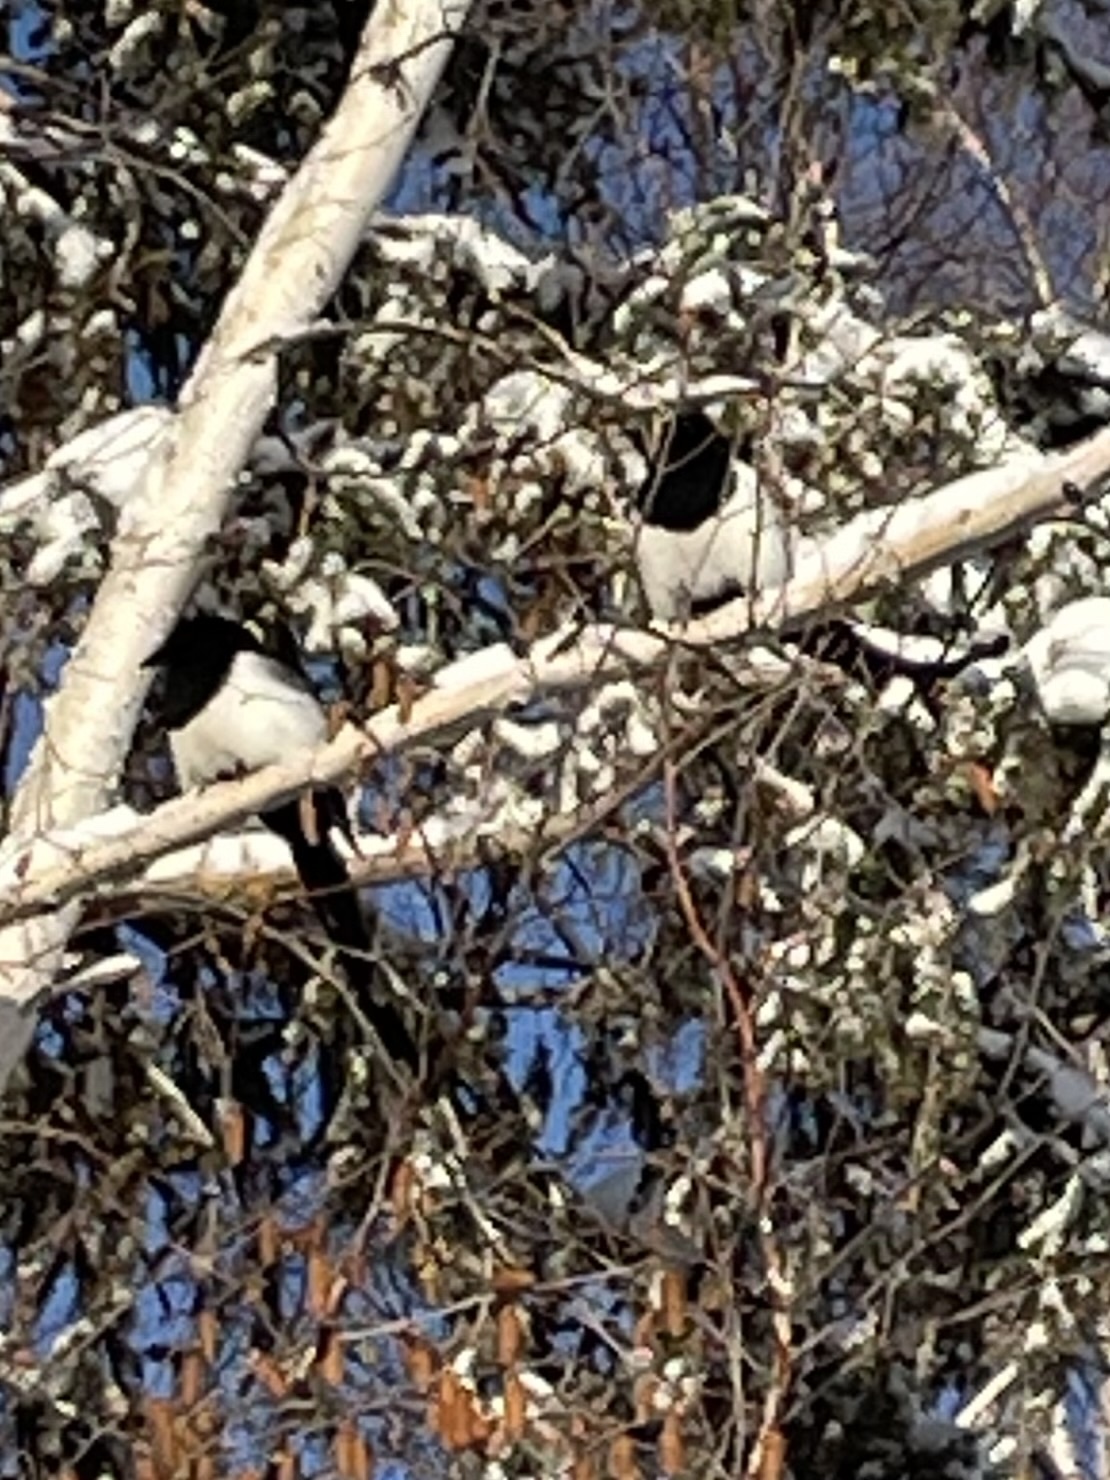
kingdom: Animalia
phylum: Chordata
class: Aves
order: Passeriformes
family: Corvidae
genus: Pica
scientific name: Pica hudsonia
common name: Black-billed magpie
